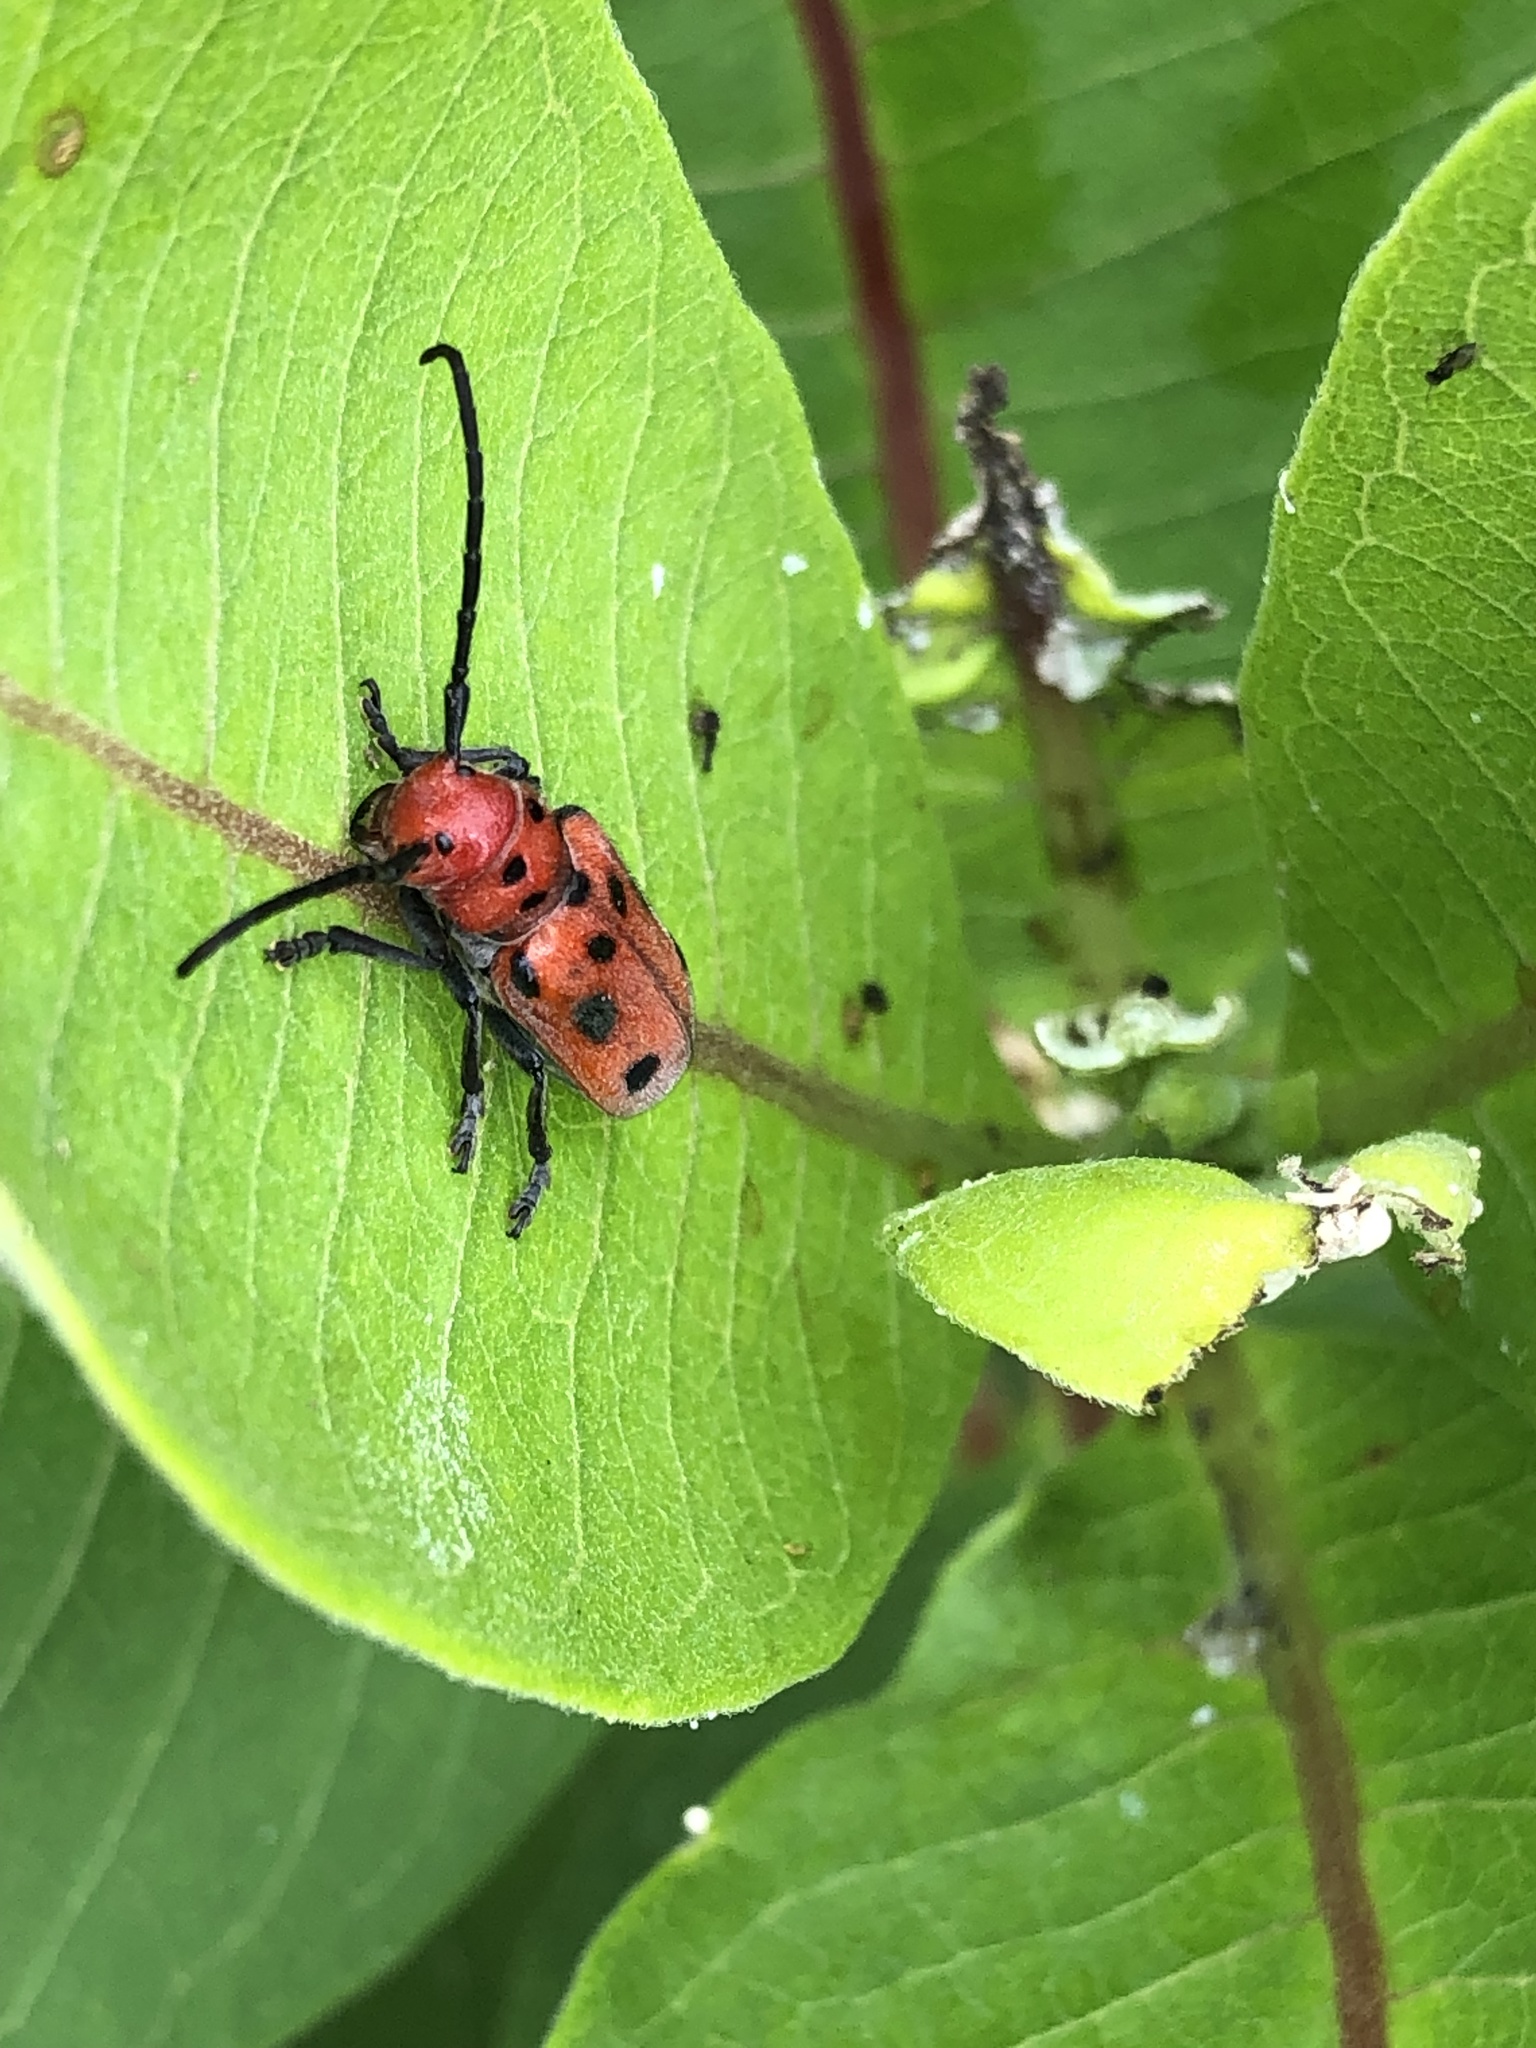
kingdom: Animalia
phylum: Arthropoda
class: Insecta
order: Coleoptera
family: Cerambycidae
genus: Tetraopes
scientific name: Tetraopes tetrophthalmus
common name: Red milkweed beetle
